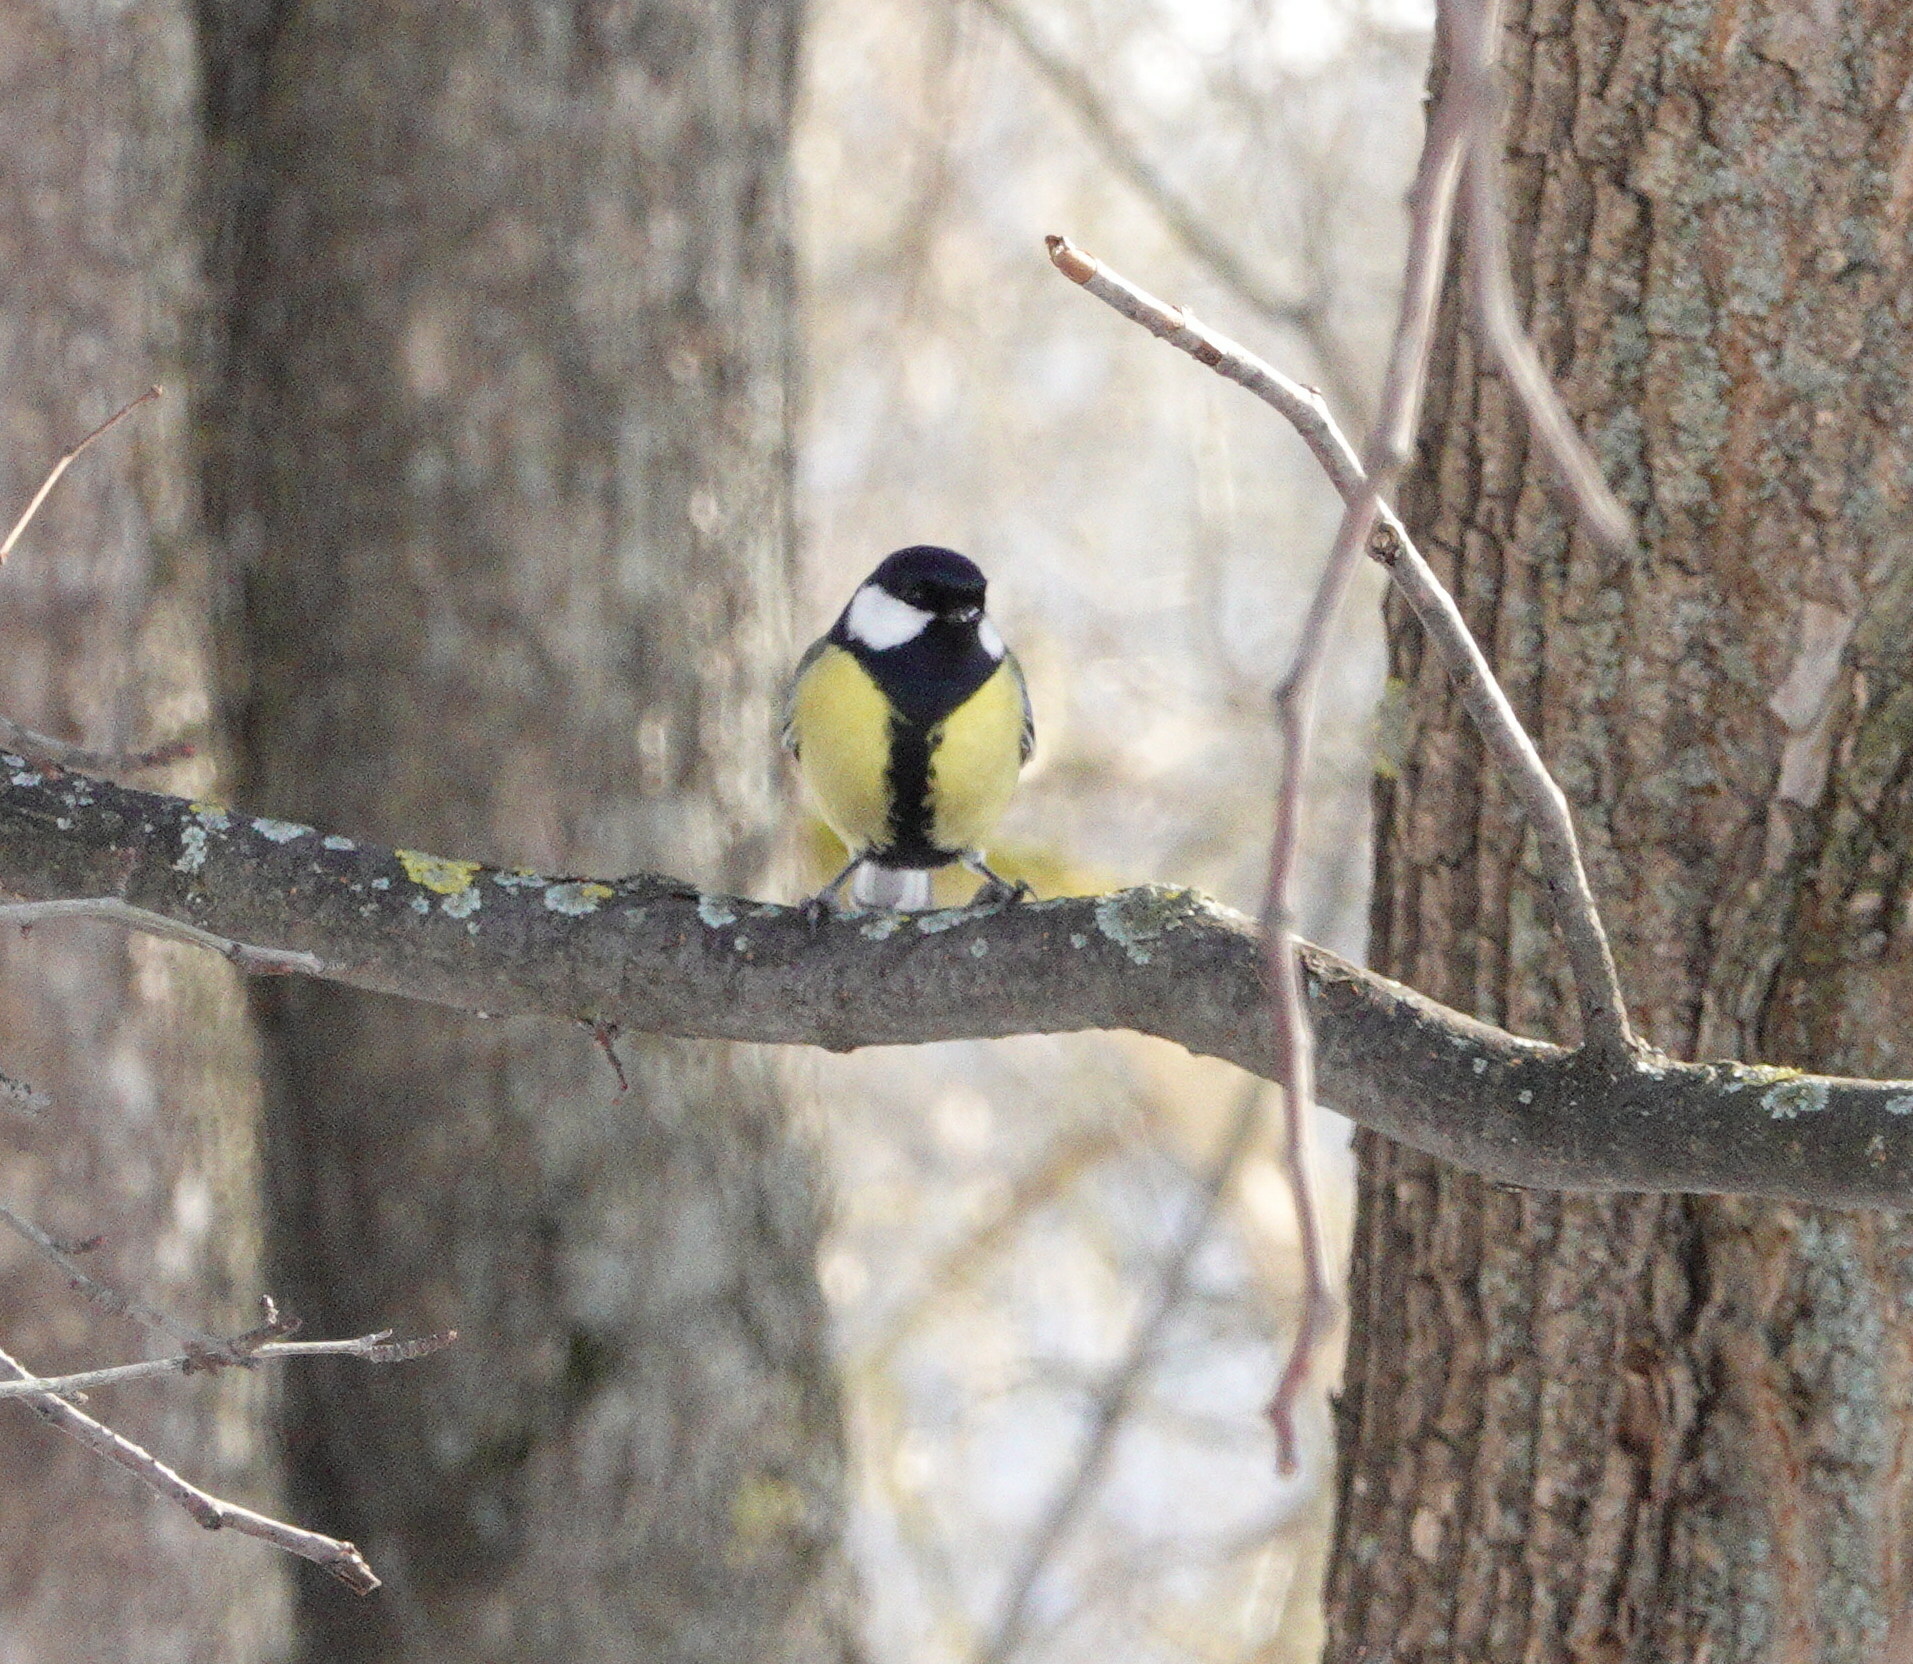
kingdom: Animalia
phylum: Chordata
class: Aves
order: Passeriformes
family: Paridae
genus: Parus
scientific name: Parus major
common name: Great tit
